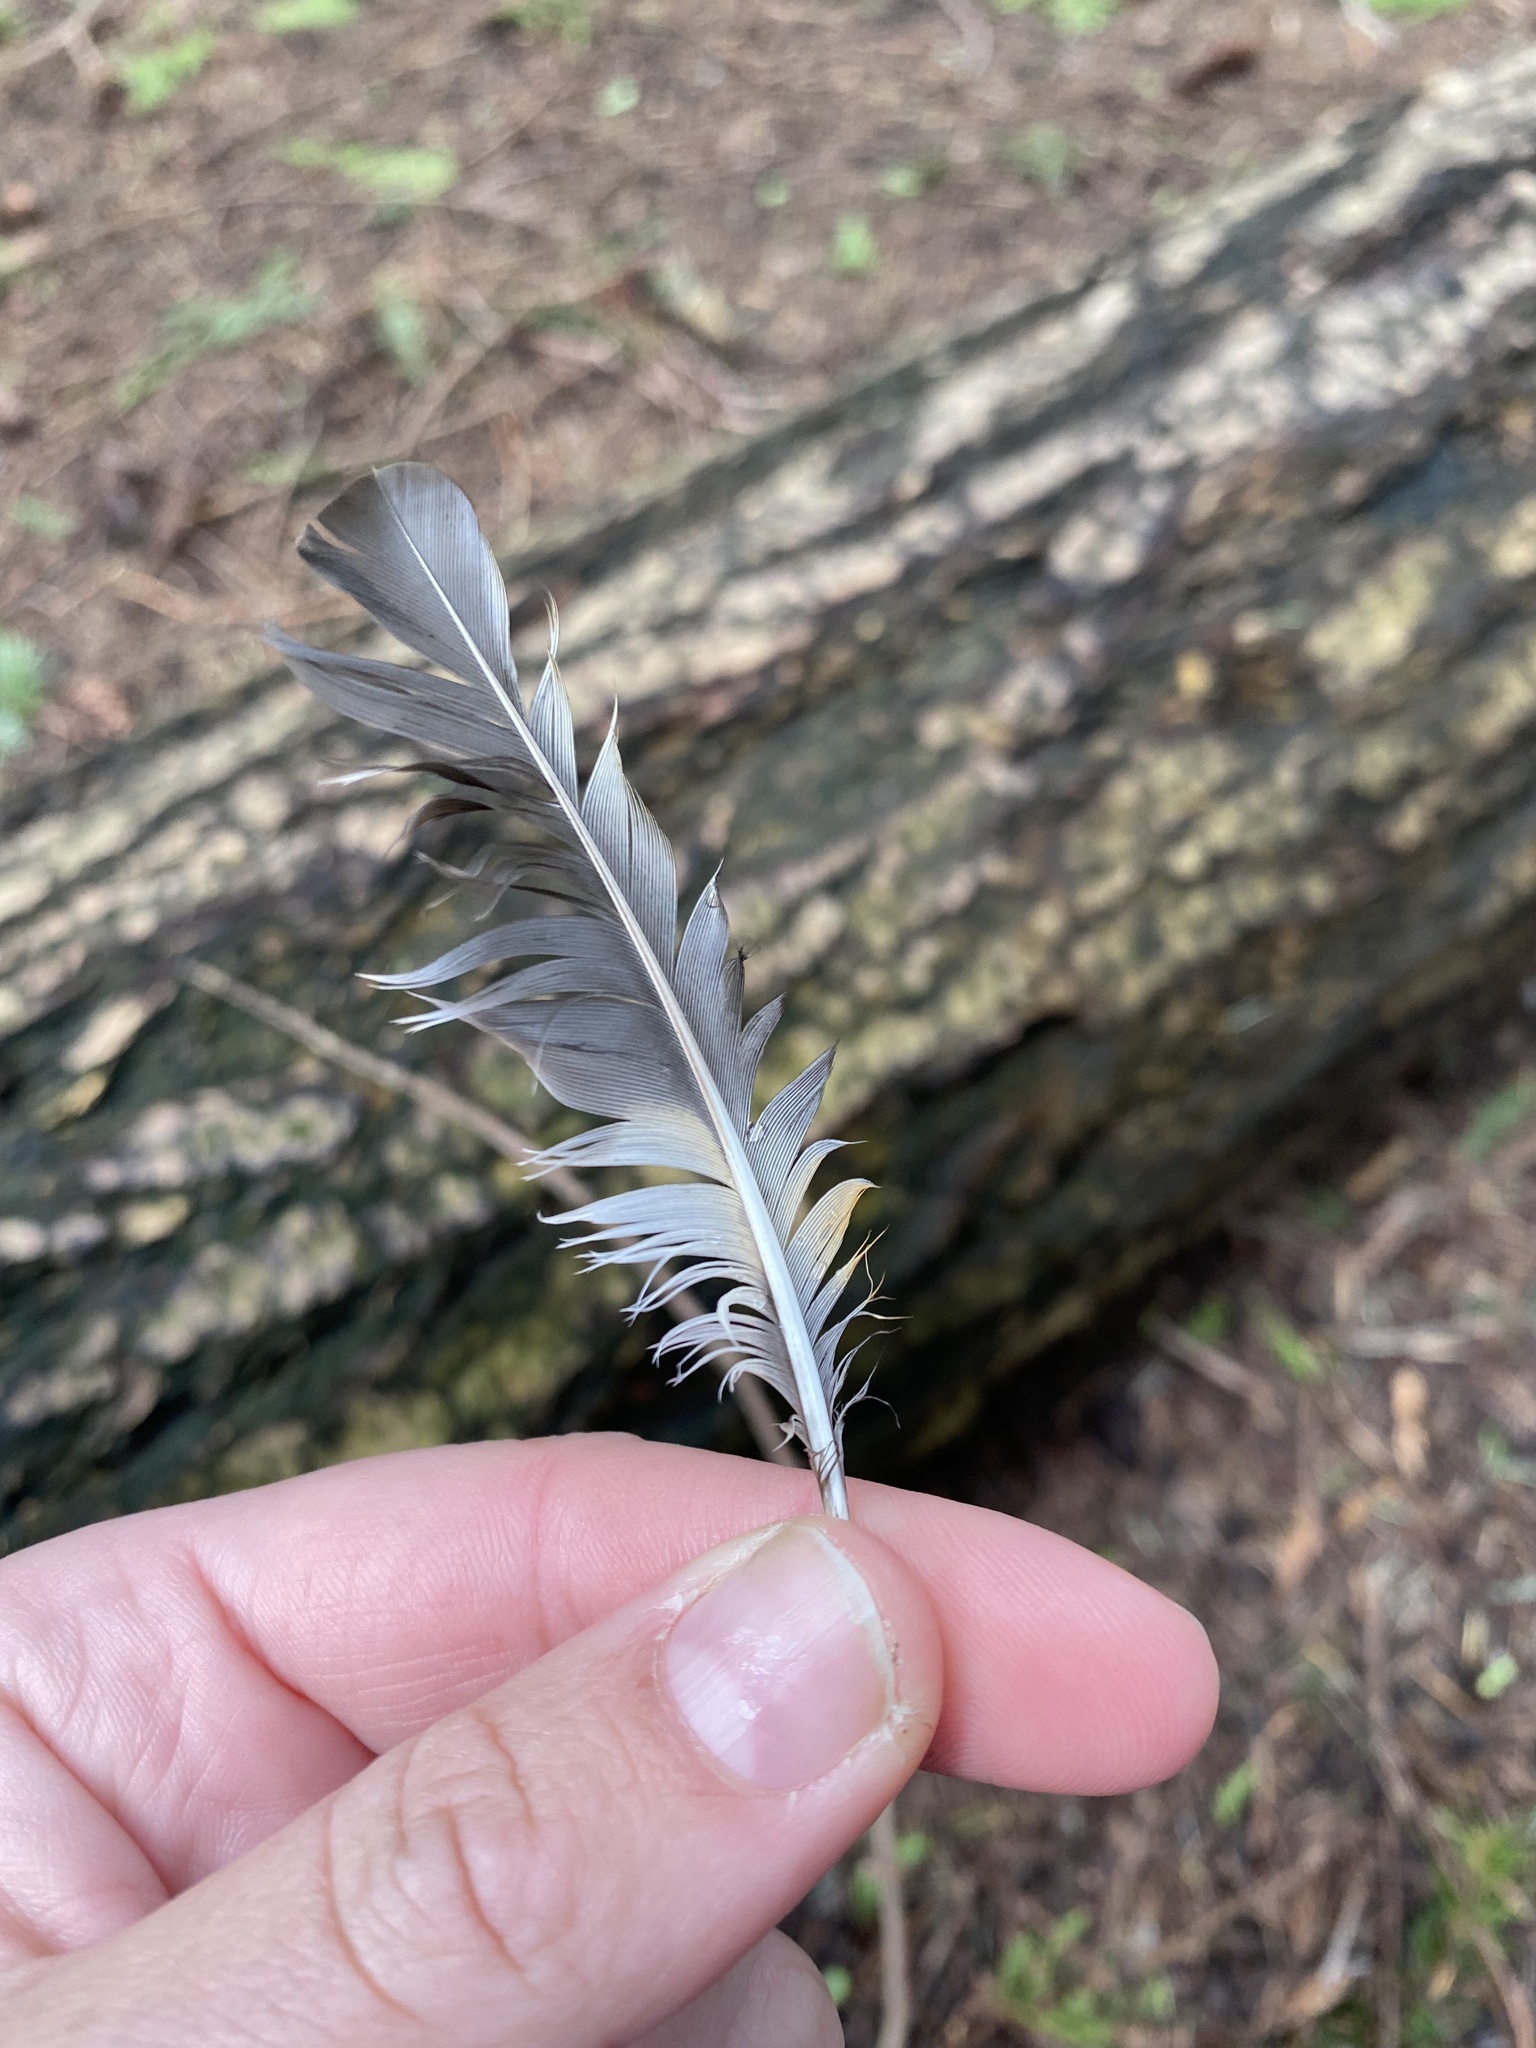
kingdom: Animalia
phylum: Chordata
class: Aves
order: Passeriformes
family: Turdidae
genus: Ixoreus
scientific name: Ixoreus naevius
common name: Varied thrush
